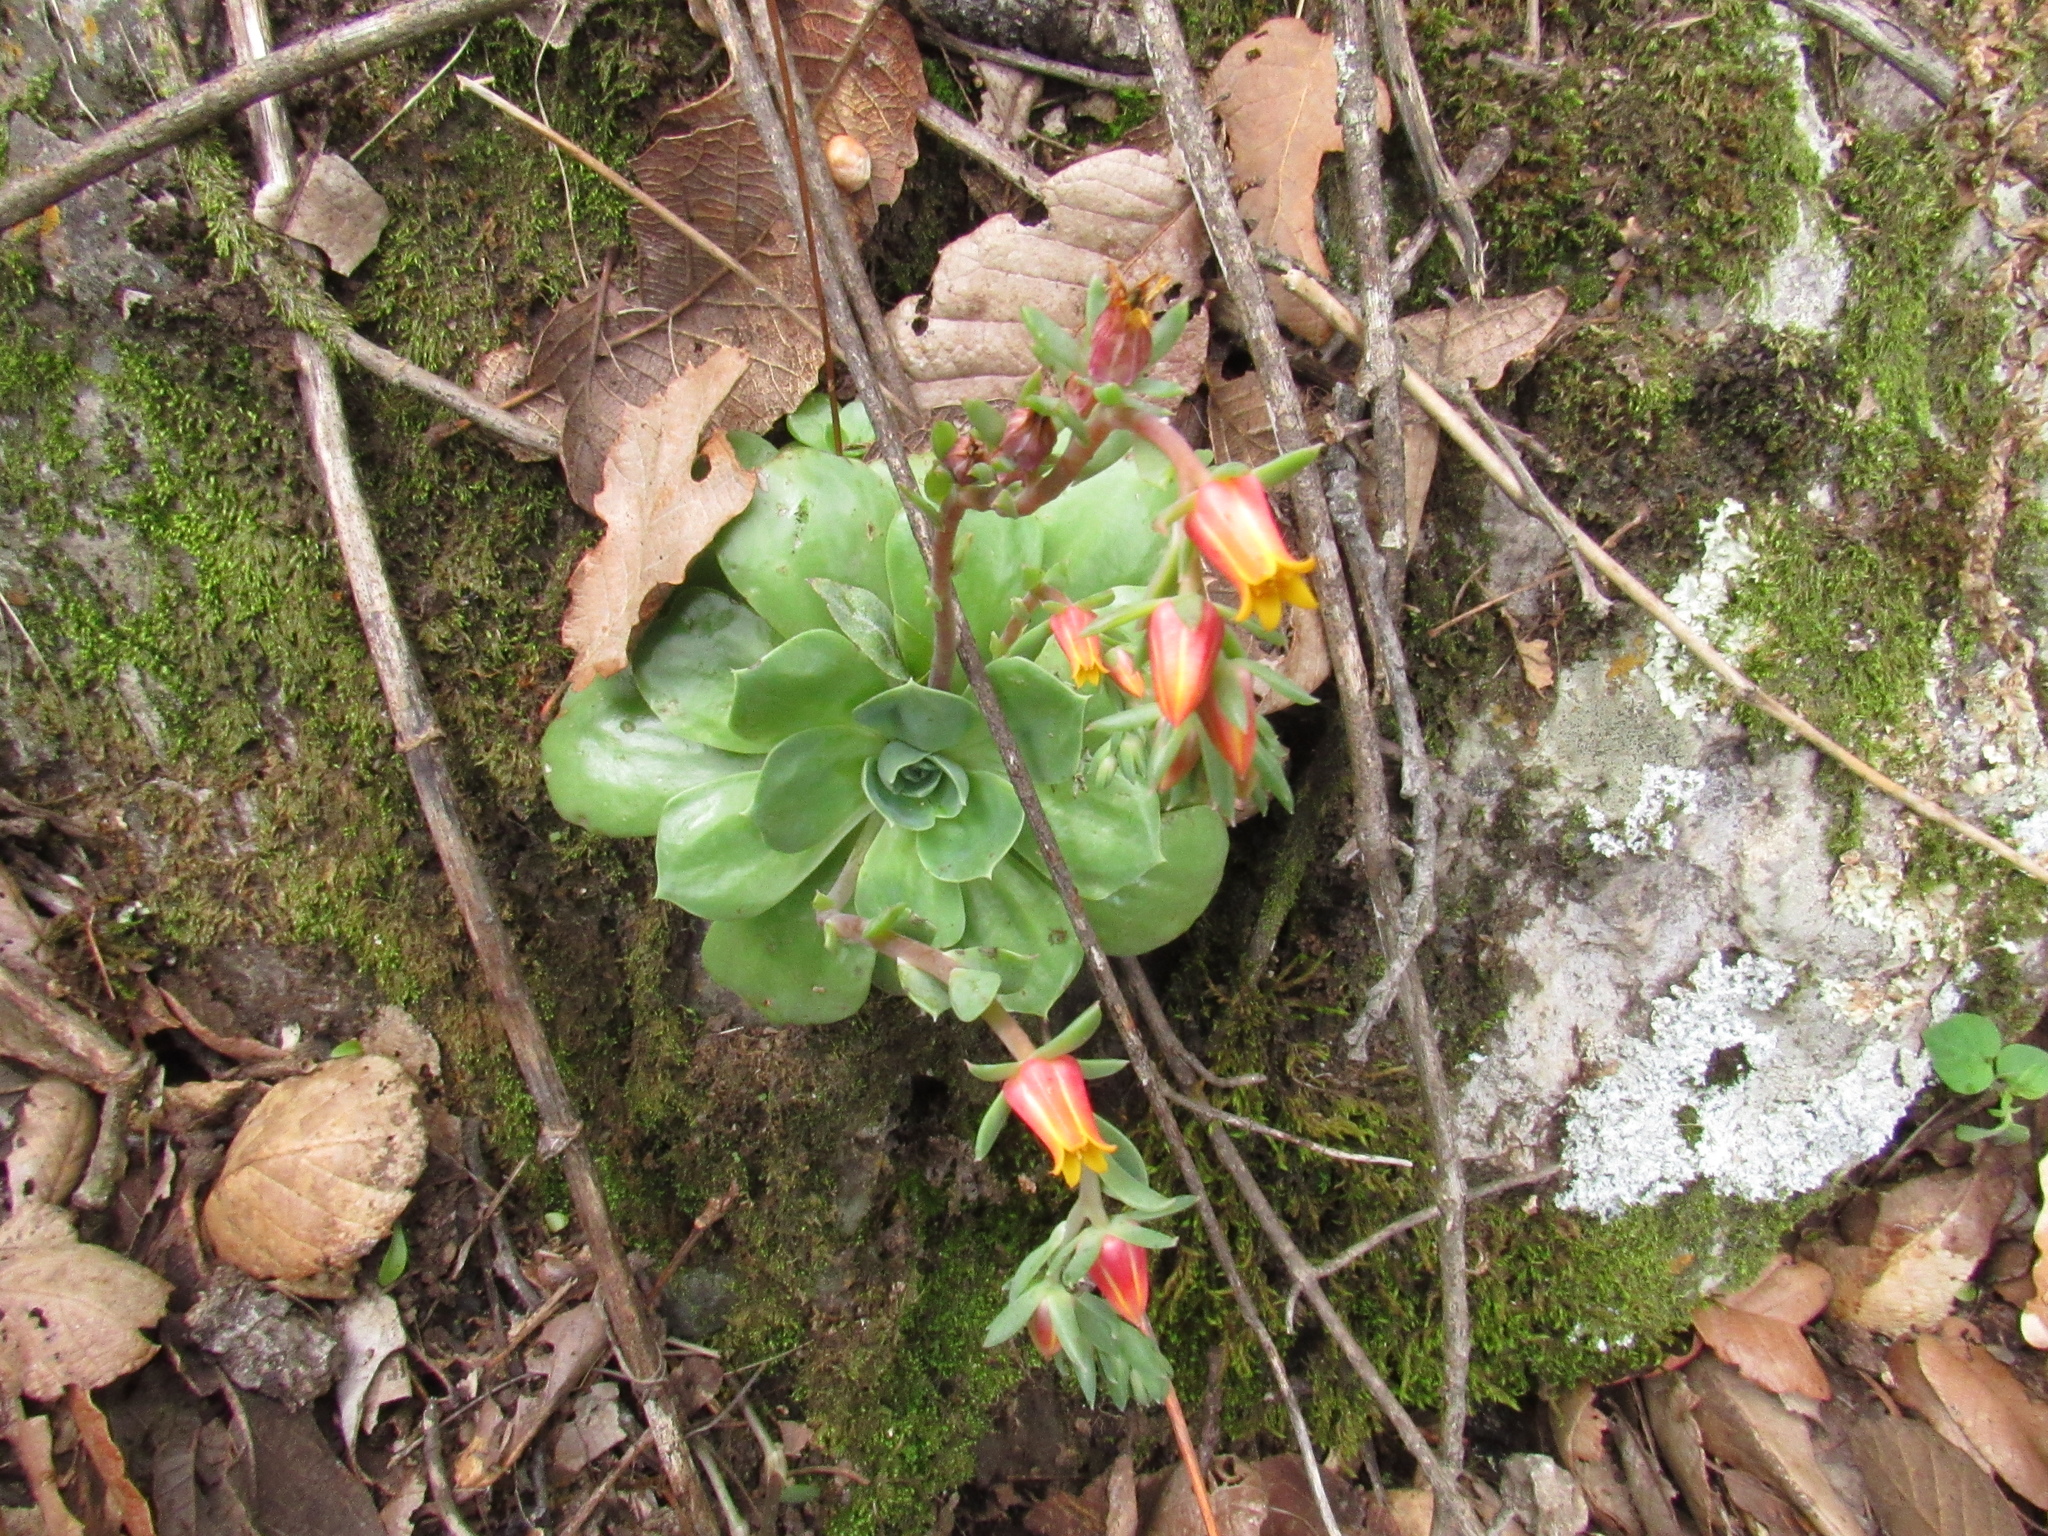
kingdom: Plantae
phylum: Tracheophyta
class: Magnoliopsida
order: Saxifragales
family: Crassulaceae
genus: Echeveria
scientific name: Echeveria secunda
